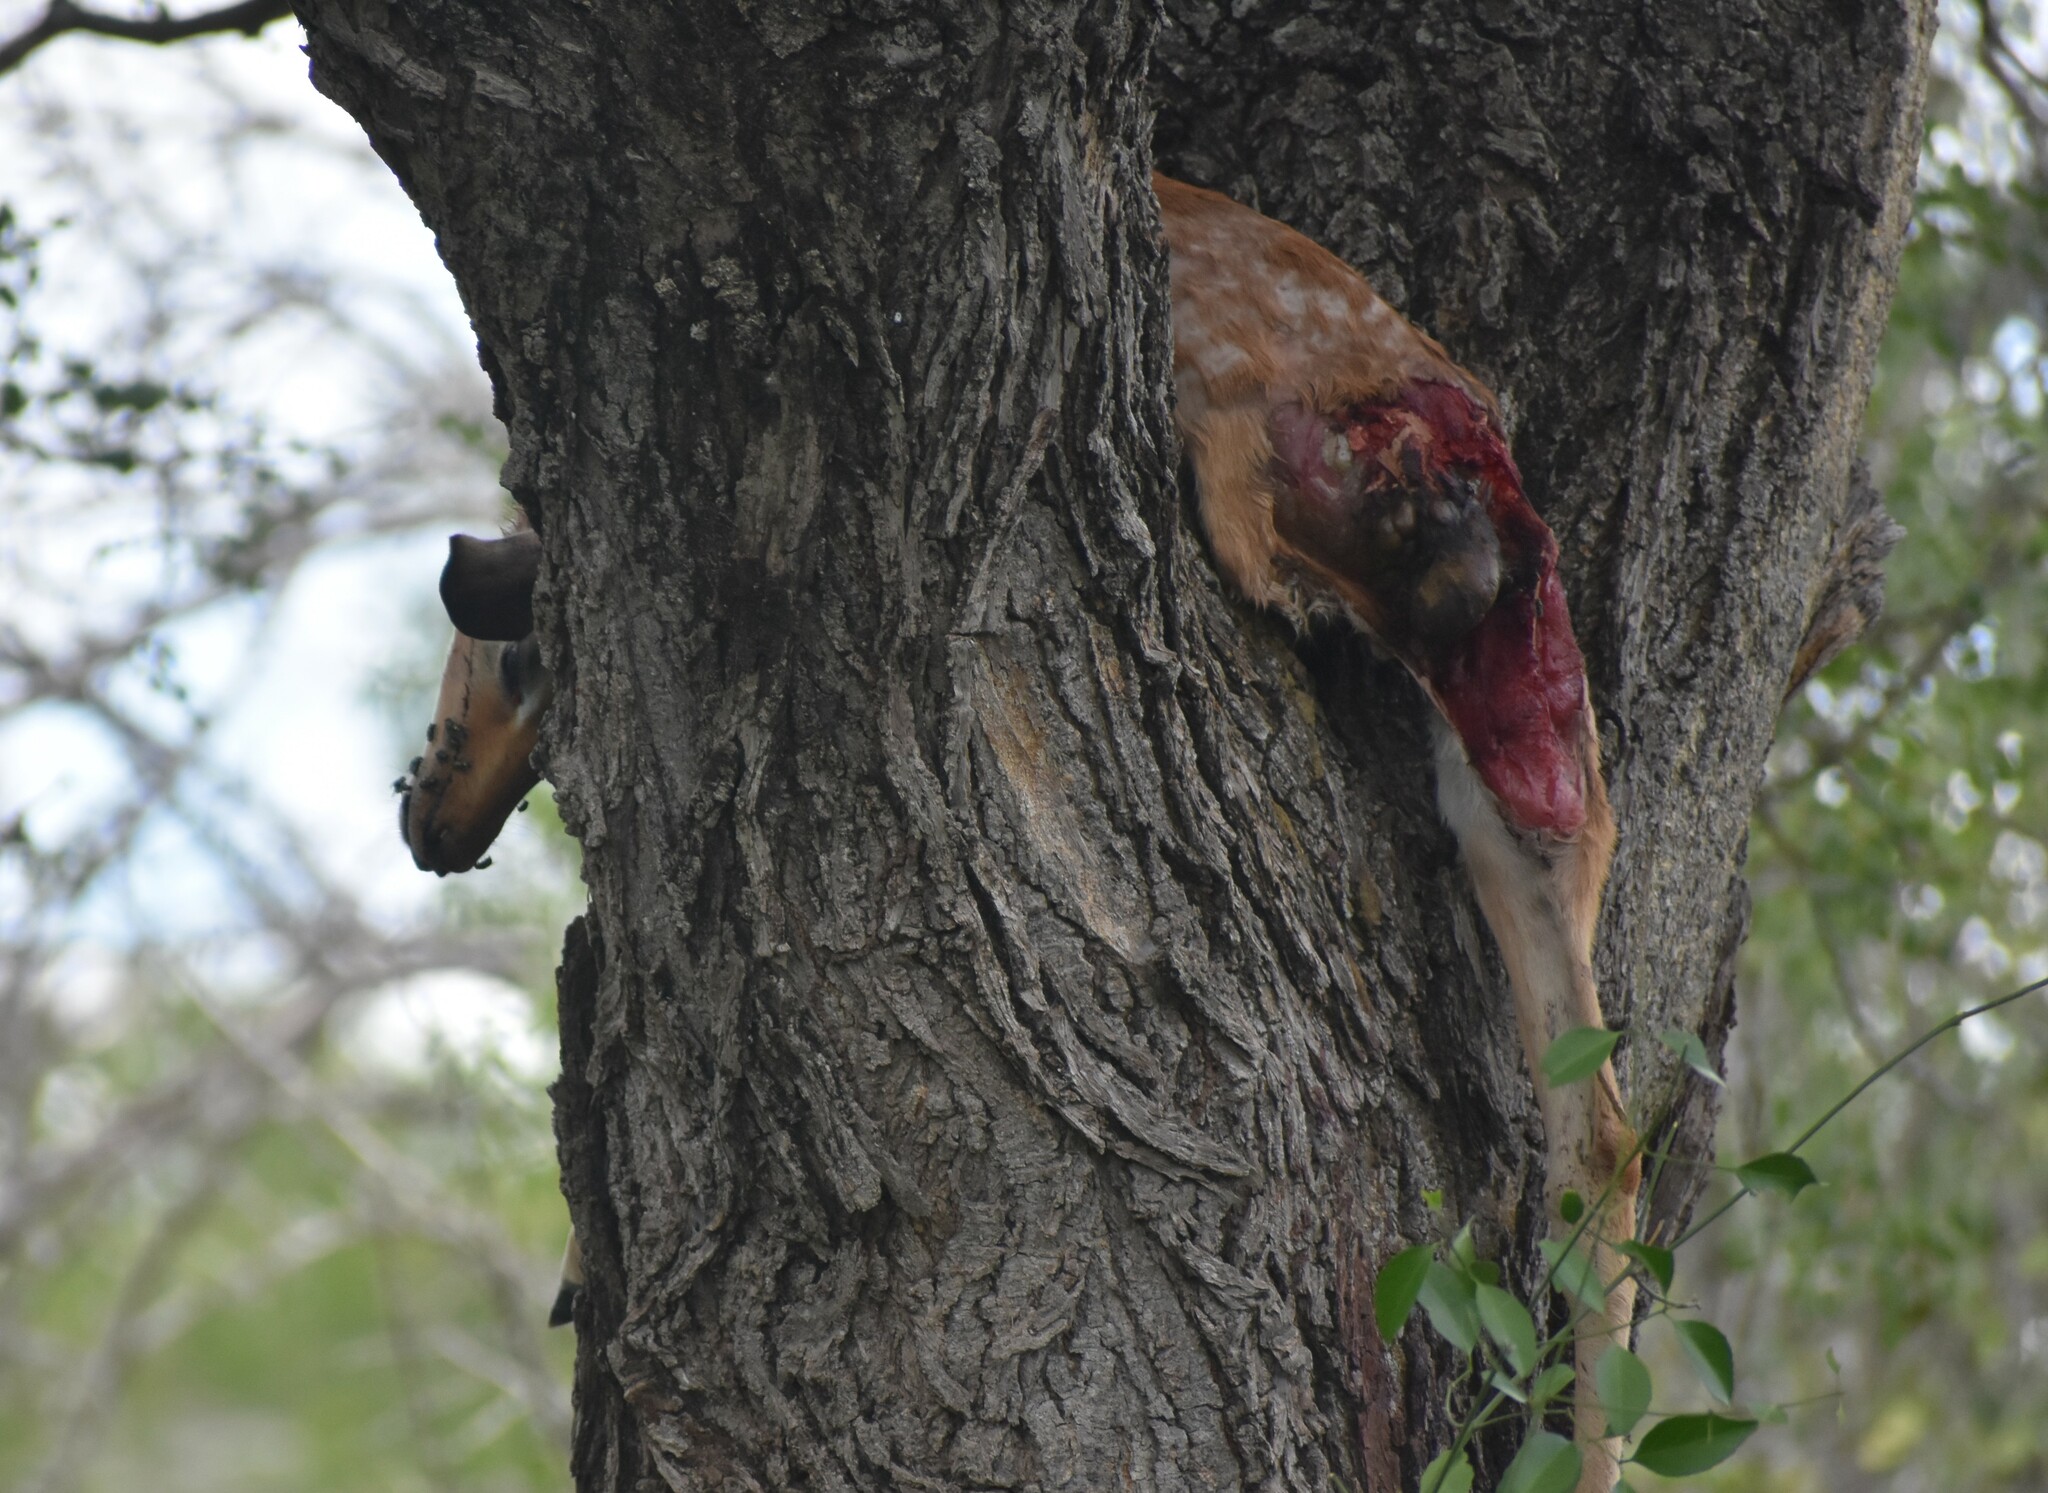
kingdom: Animalia
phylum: Chordata
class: Mammalia
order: Artiodactyla
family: Bovidae
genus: Aepyceros
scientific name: Aepyceros melampus
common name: Impala
